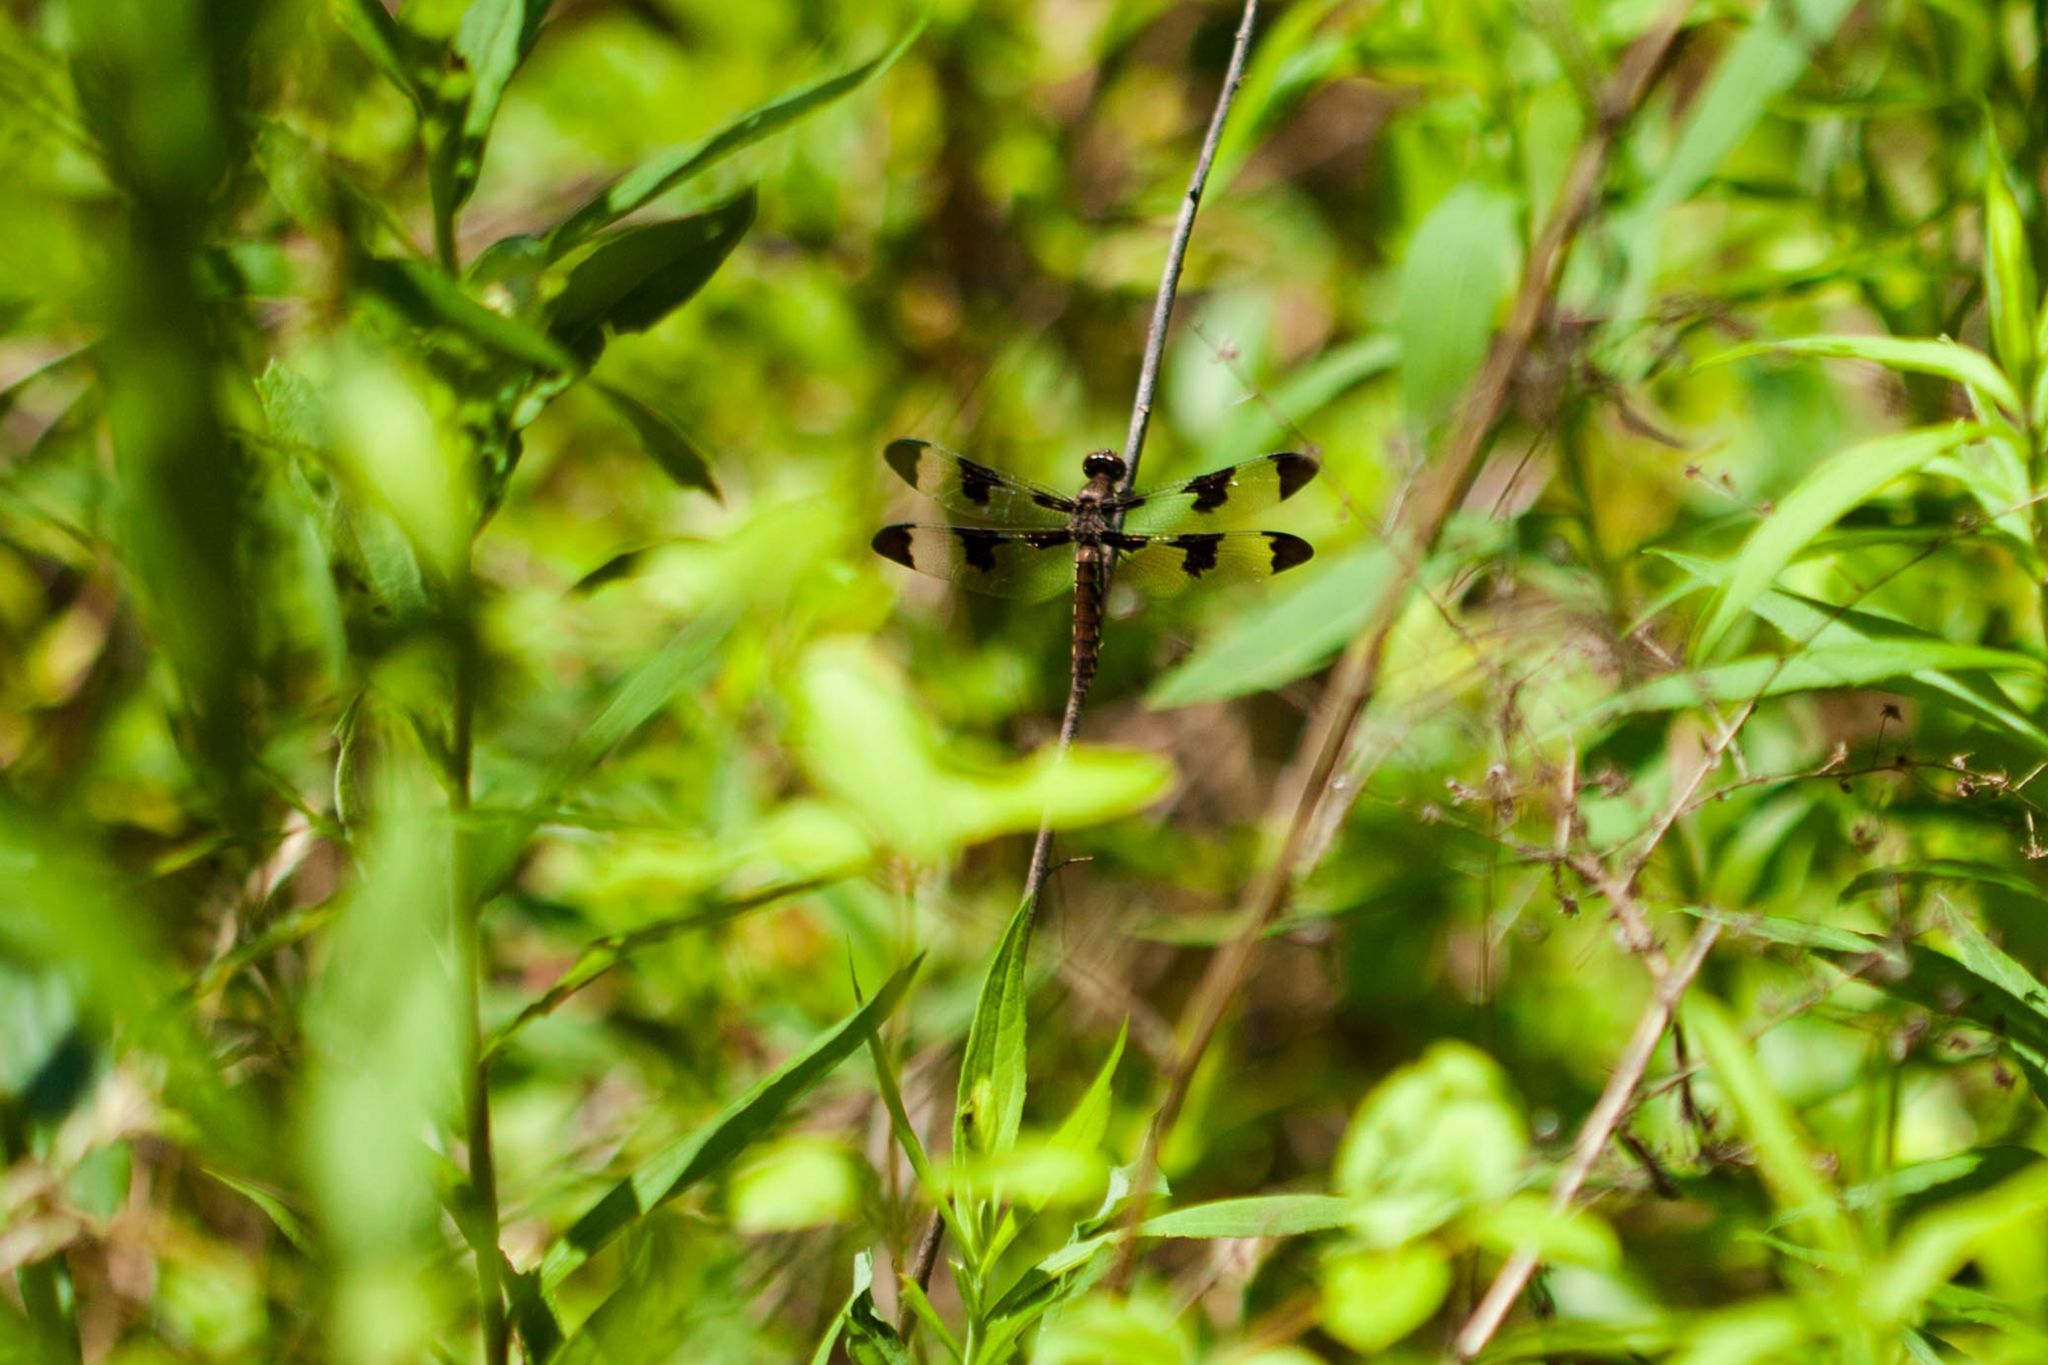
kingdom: Animalia
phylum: Arthropoda
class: Insecta
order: Odonata
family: Libellulidae
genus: Plathemis
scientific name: Plathemis lydia
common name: Common whitetail
